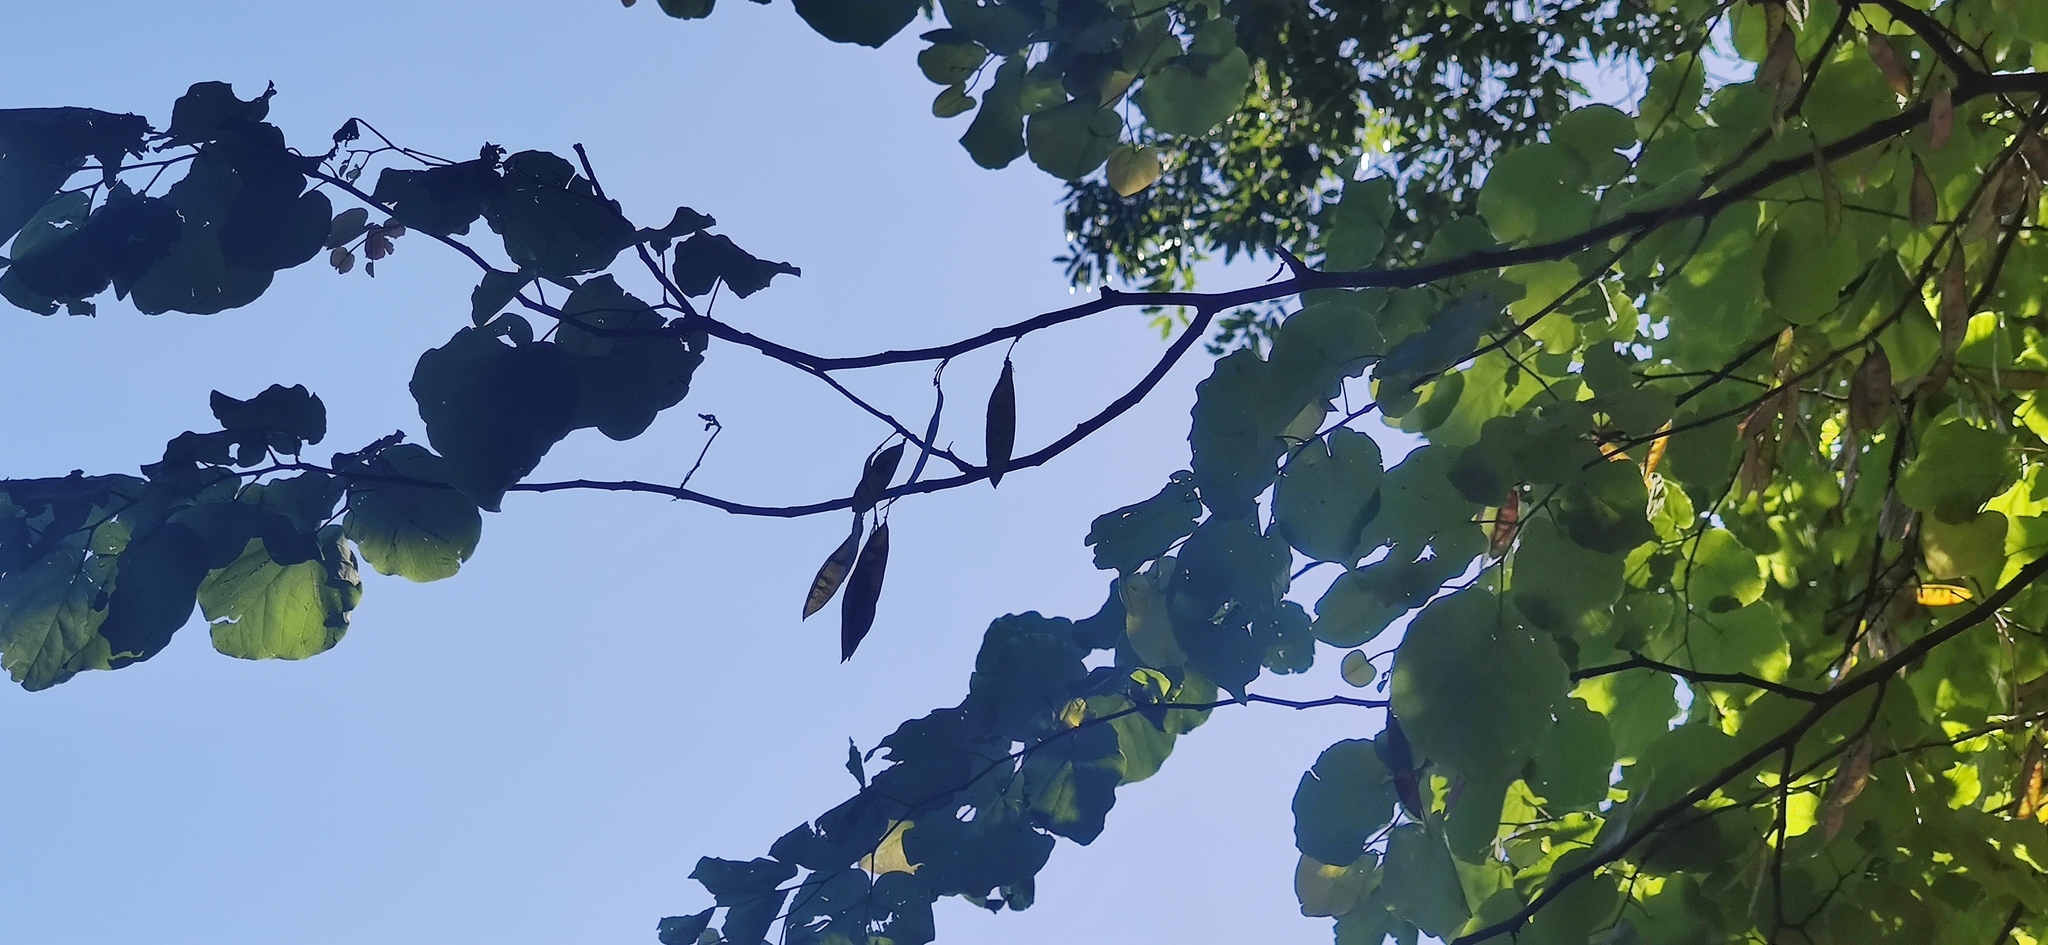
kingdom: Plantae
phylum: Tracheophyta
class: Magnoliopsida
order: Fabales
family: Fabaceae
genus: Cercis
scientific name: Cercis canadensis
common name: Eastern redbud
